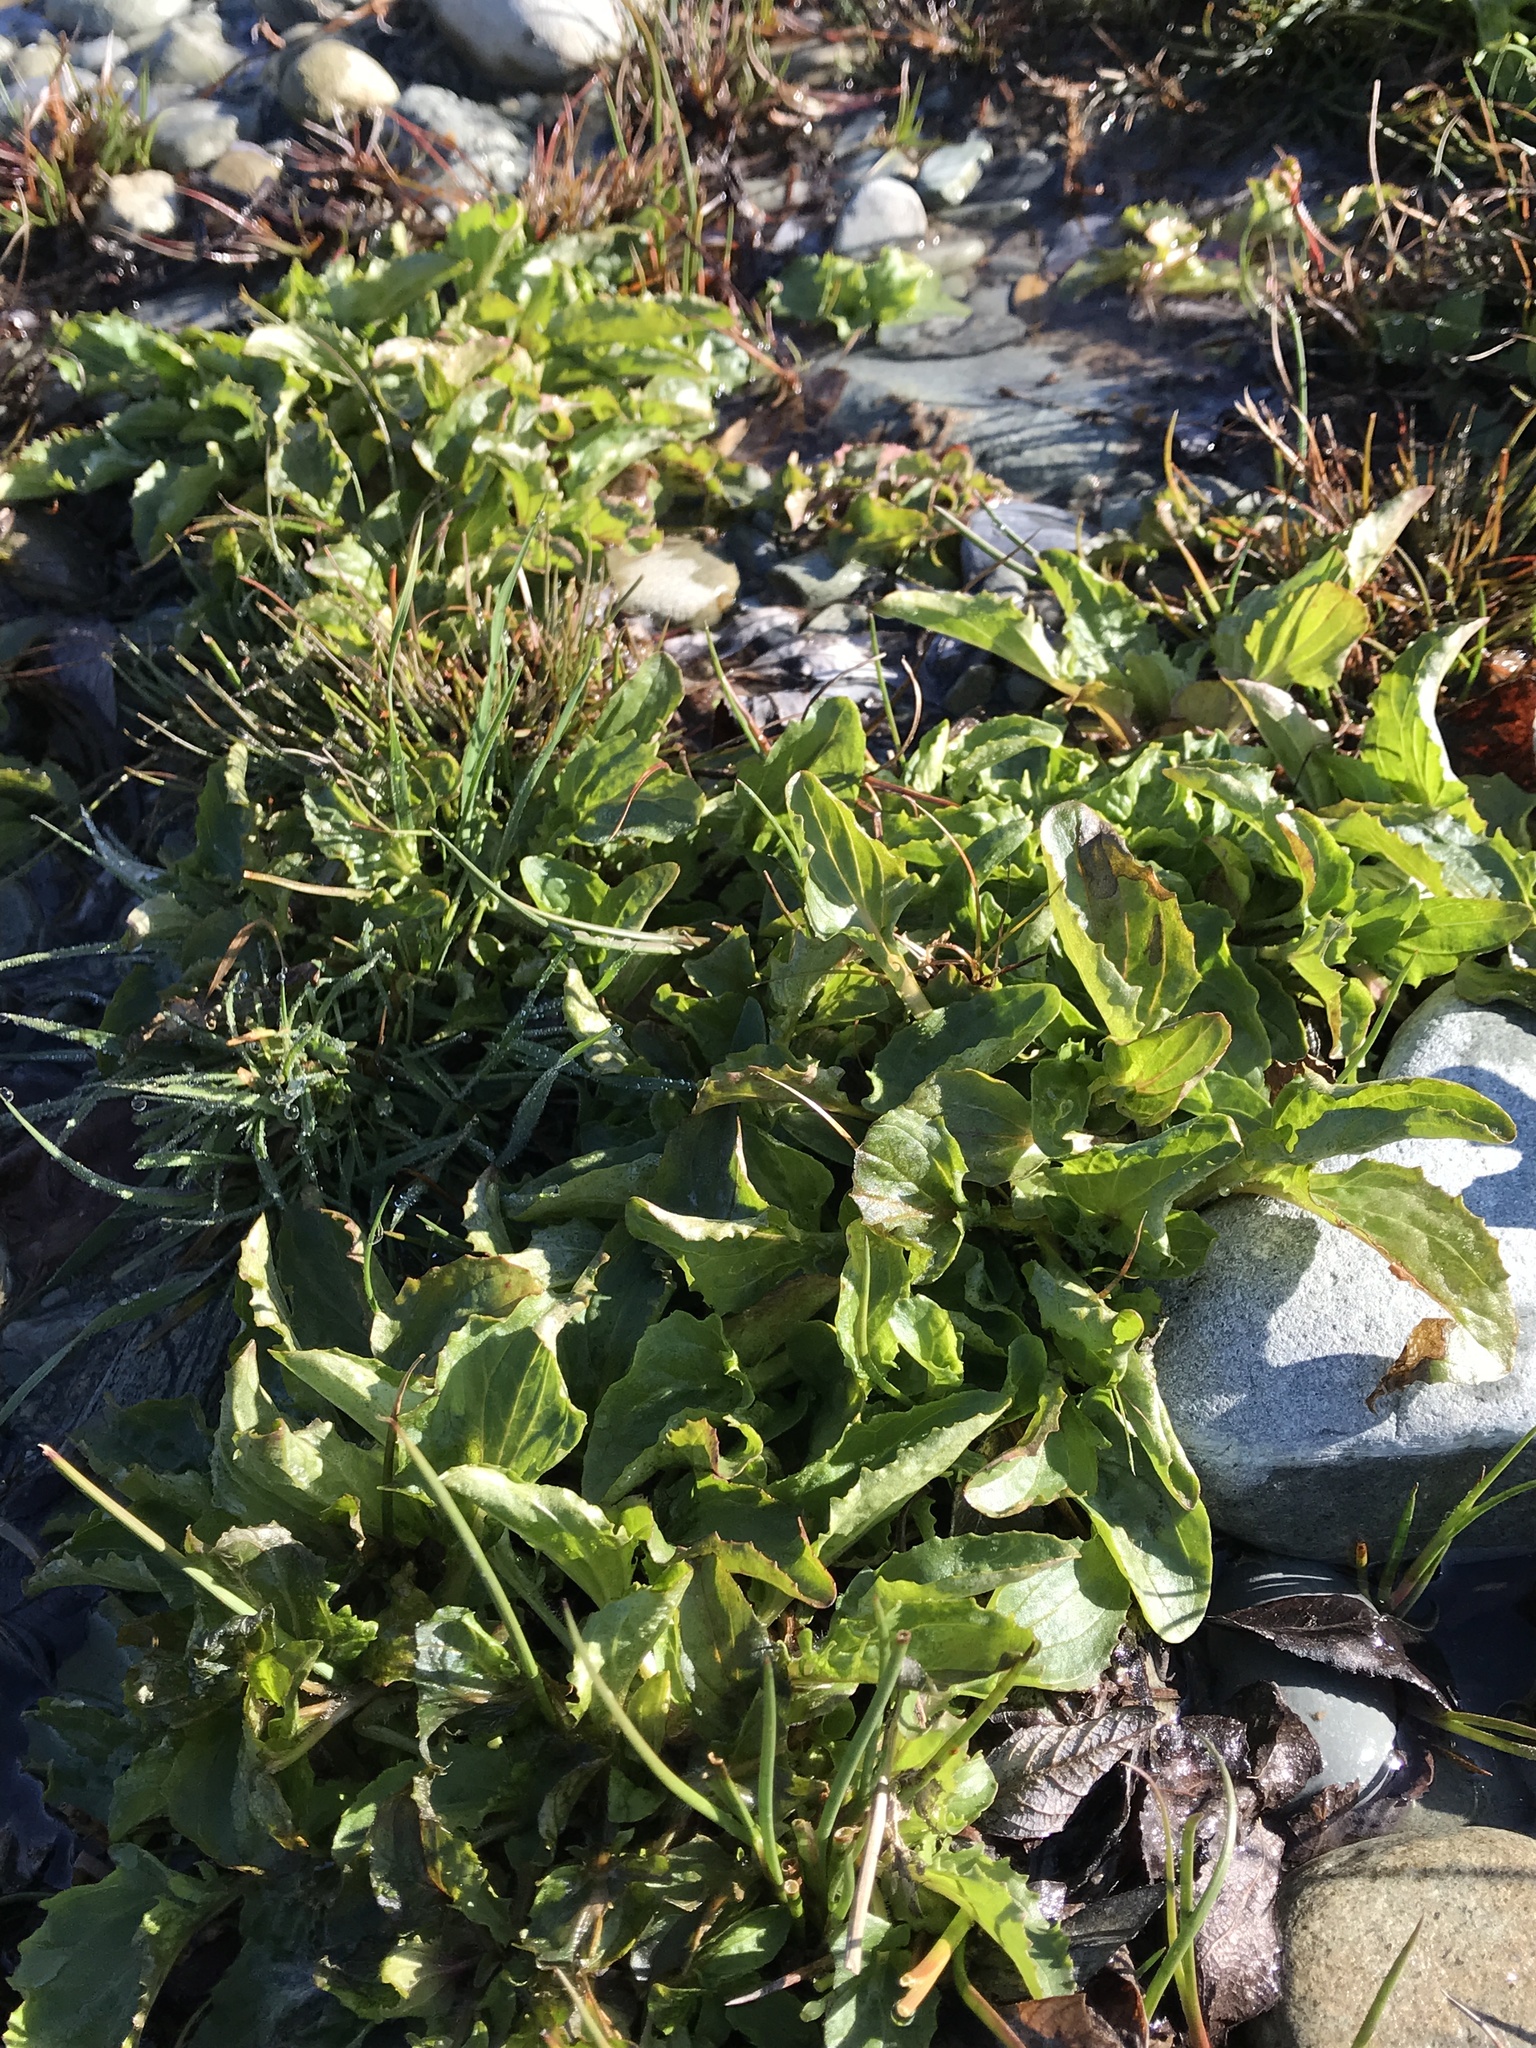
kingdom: Plantae
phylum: Tracheophyta
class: Magnoliopsida
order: Lamiales
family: Phrymaceae
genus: Erythranthe
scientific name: Erythranthe guttata
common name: Monkeyflower
